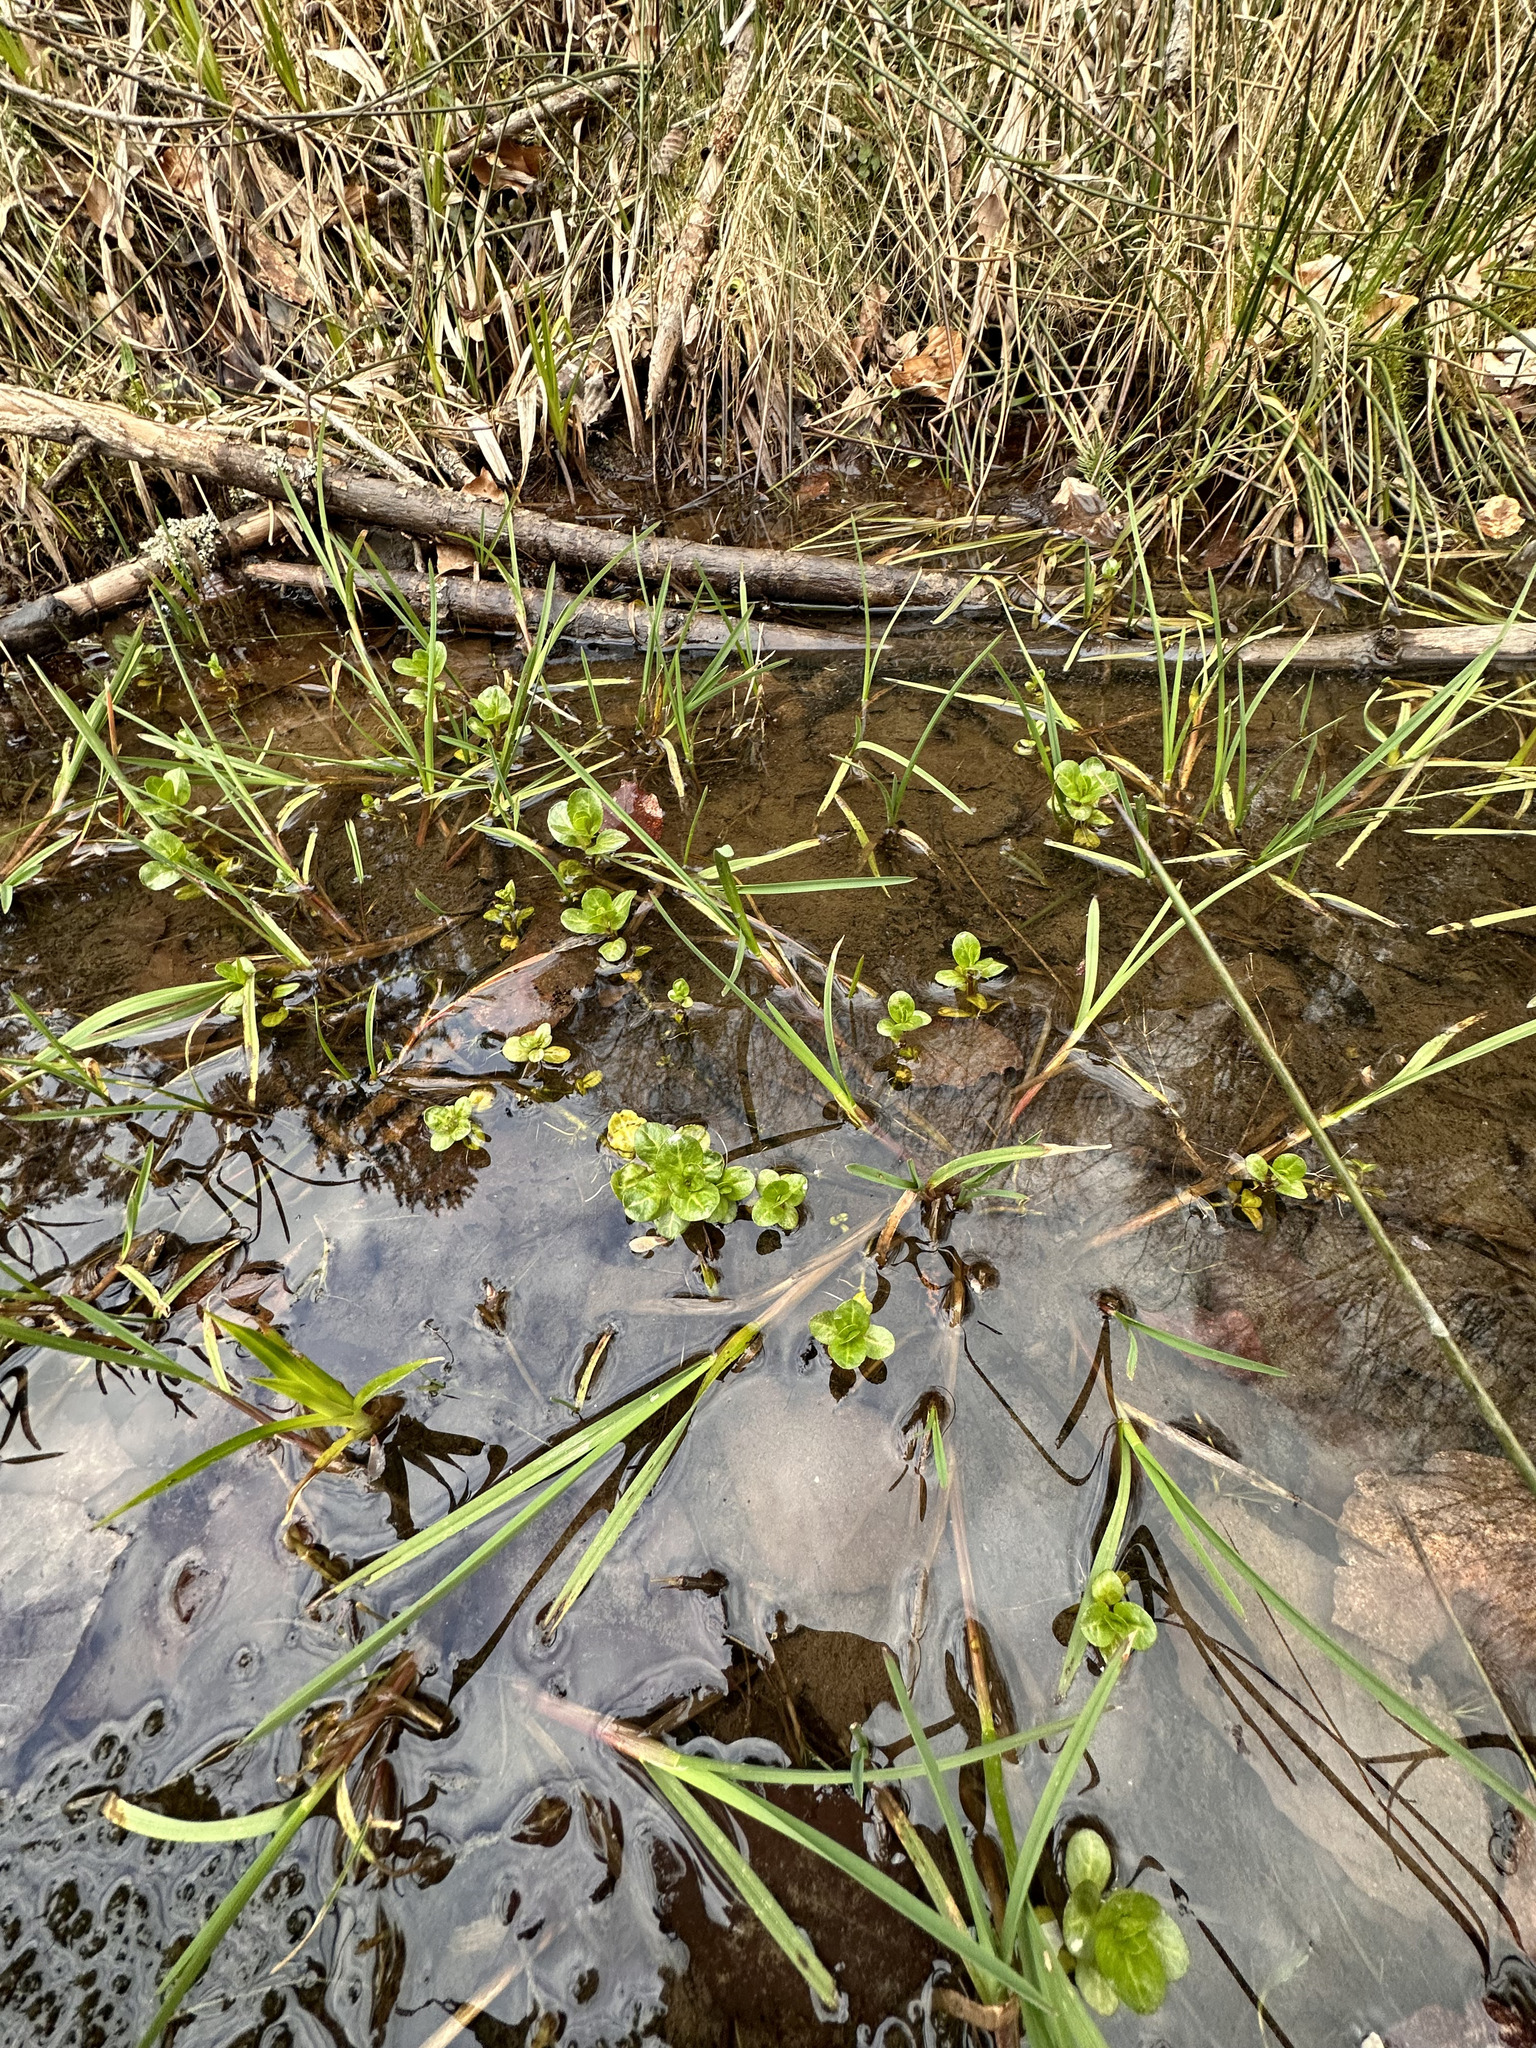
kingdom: Plantae
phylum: Tracheophyta
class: Magnoliopsida
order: Lamiales
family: Plantaginaceae
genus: Veronica
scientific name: Veronica beccabunga
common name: Brooklime
